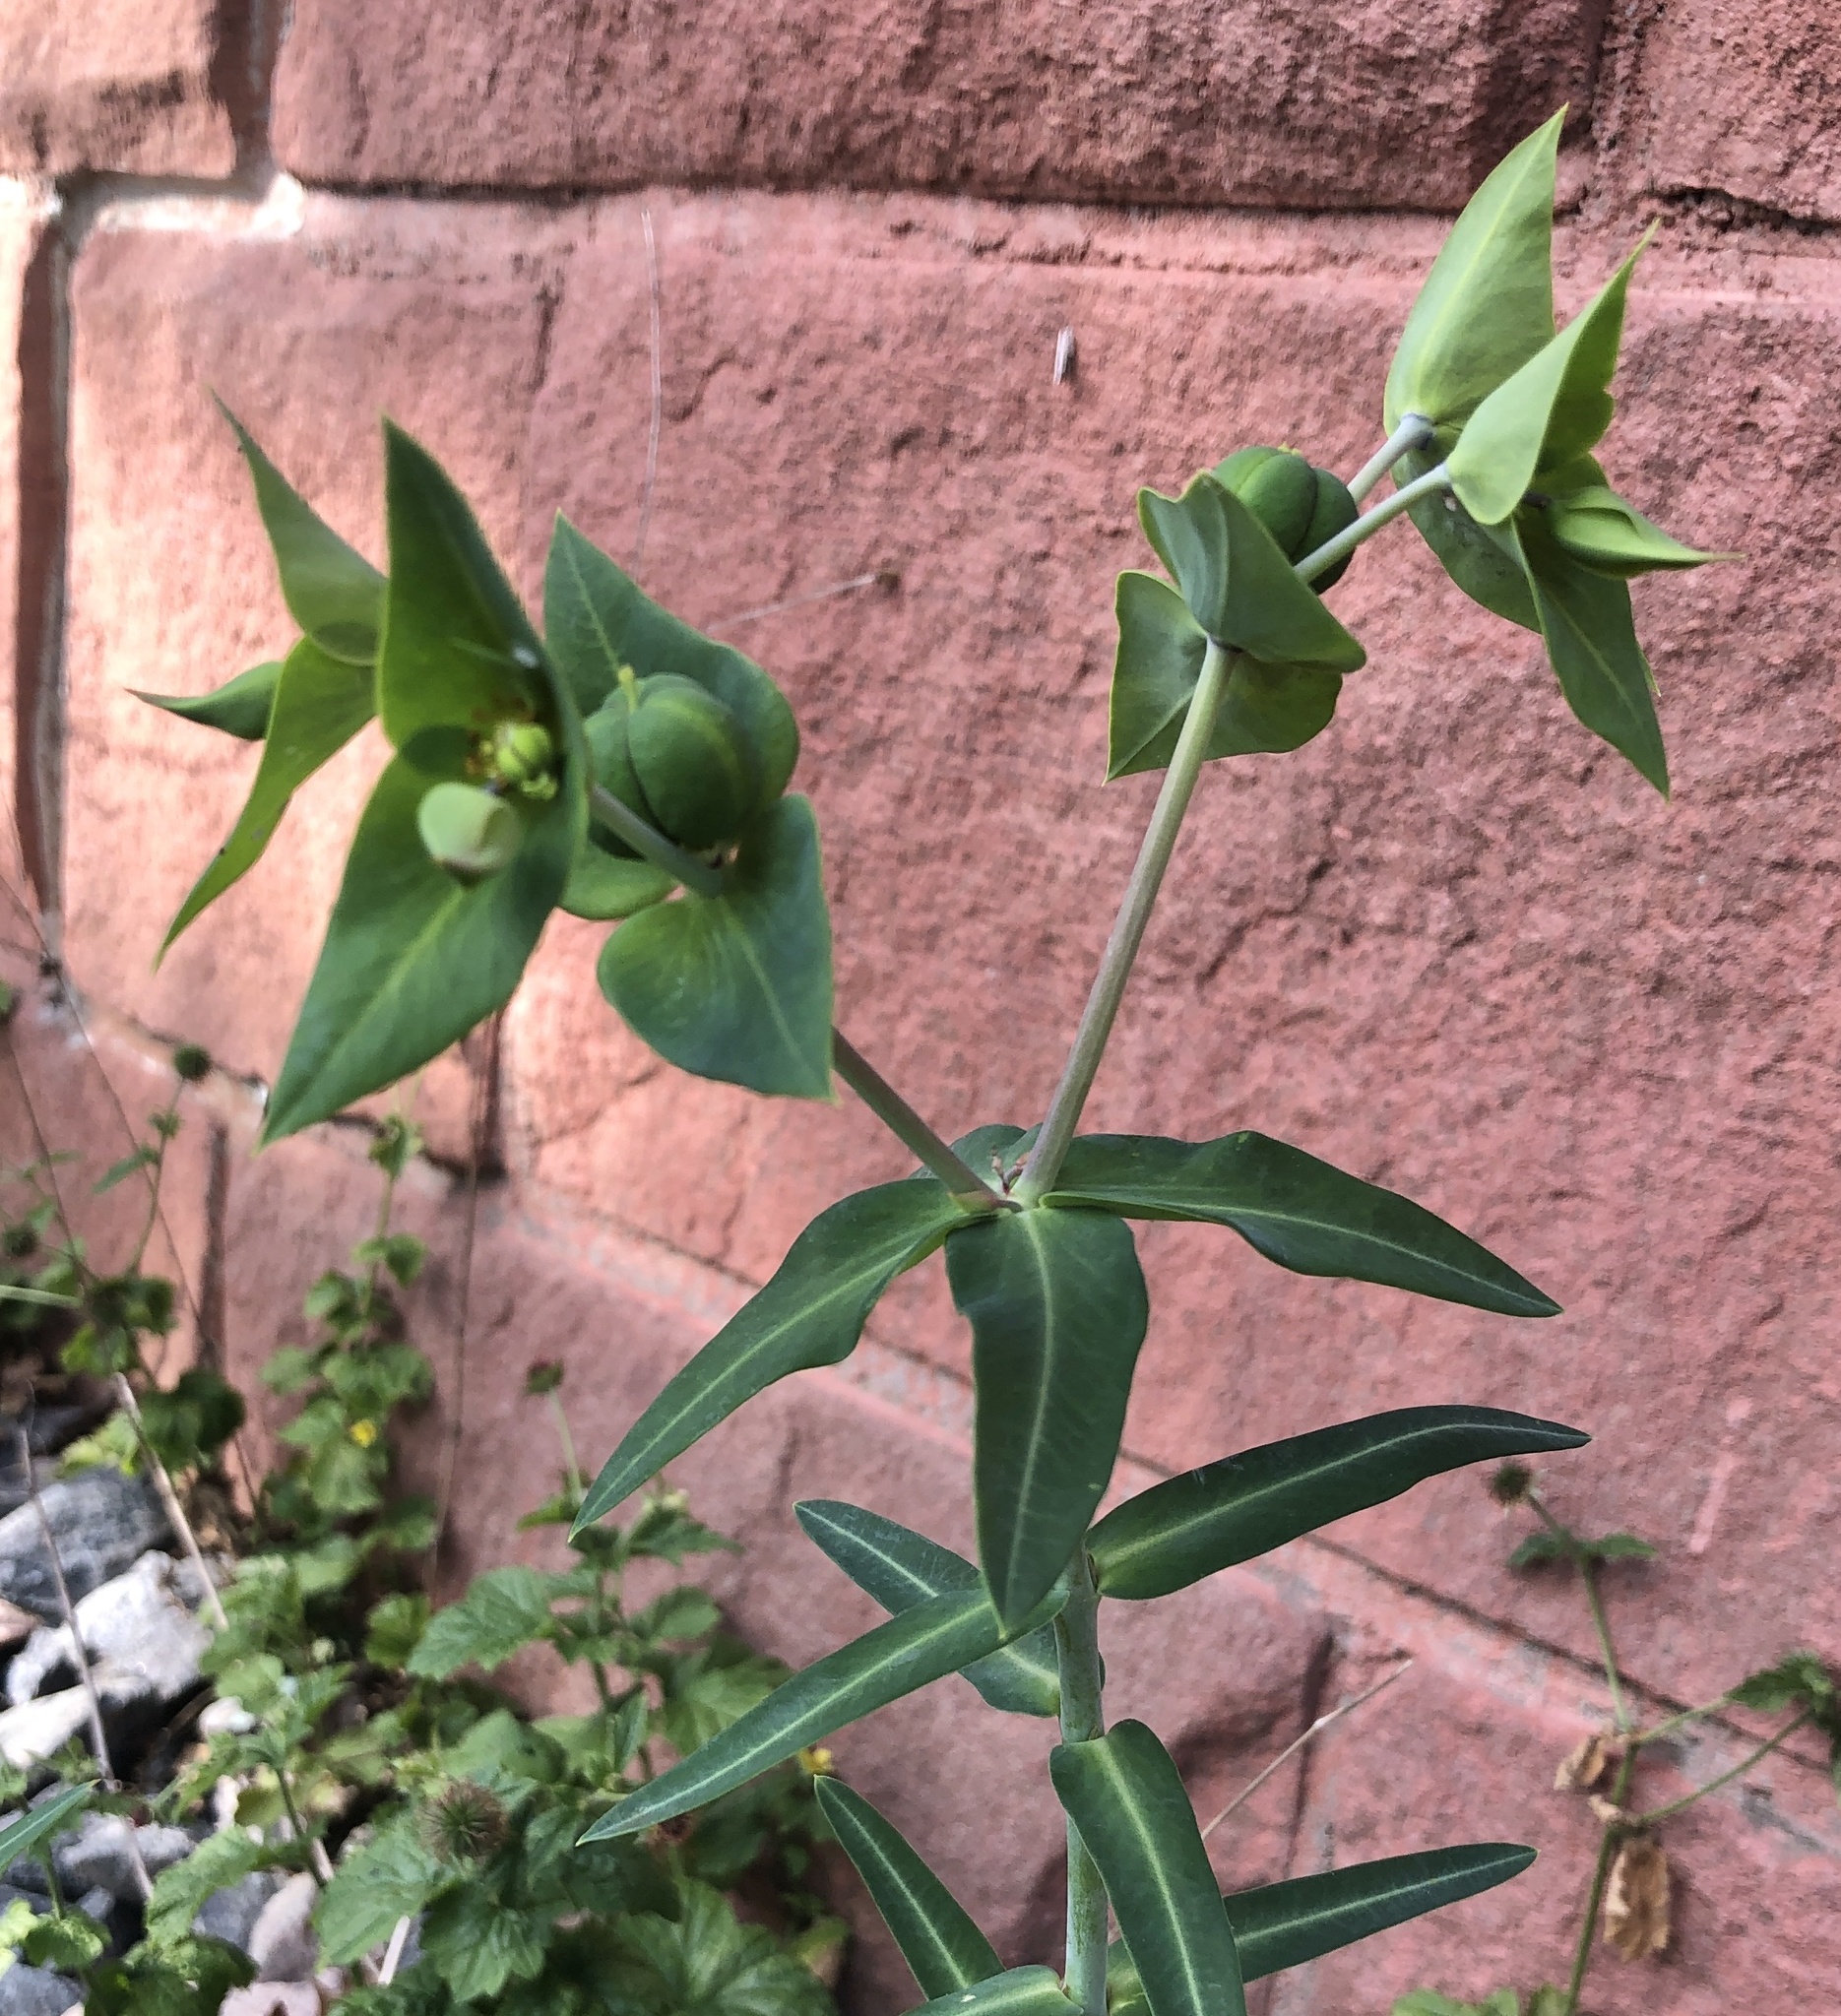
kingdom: Plantae
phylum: Tracheophyta
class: Magnoliopsida
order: Malpighiales
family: Euphorbiaceae
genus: Euphorbia
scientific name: Euphorbia lathyris
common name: Caper spurge
